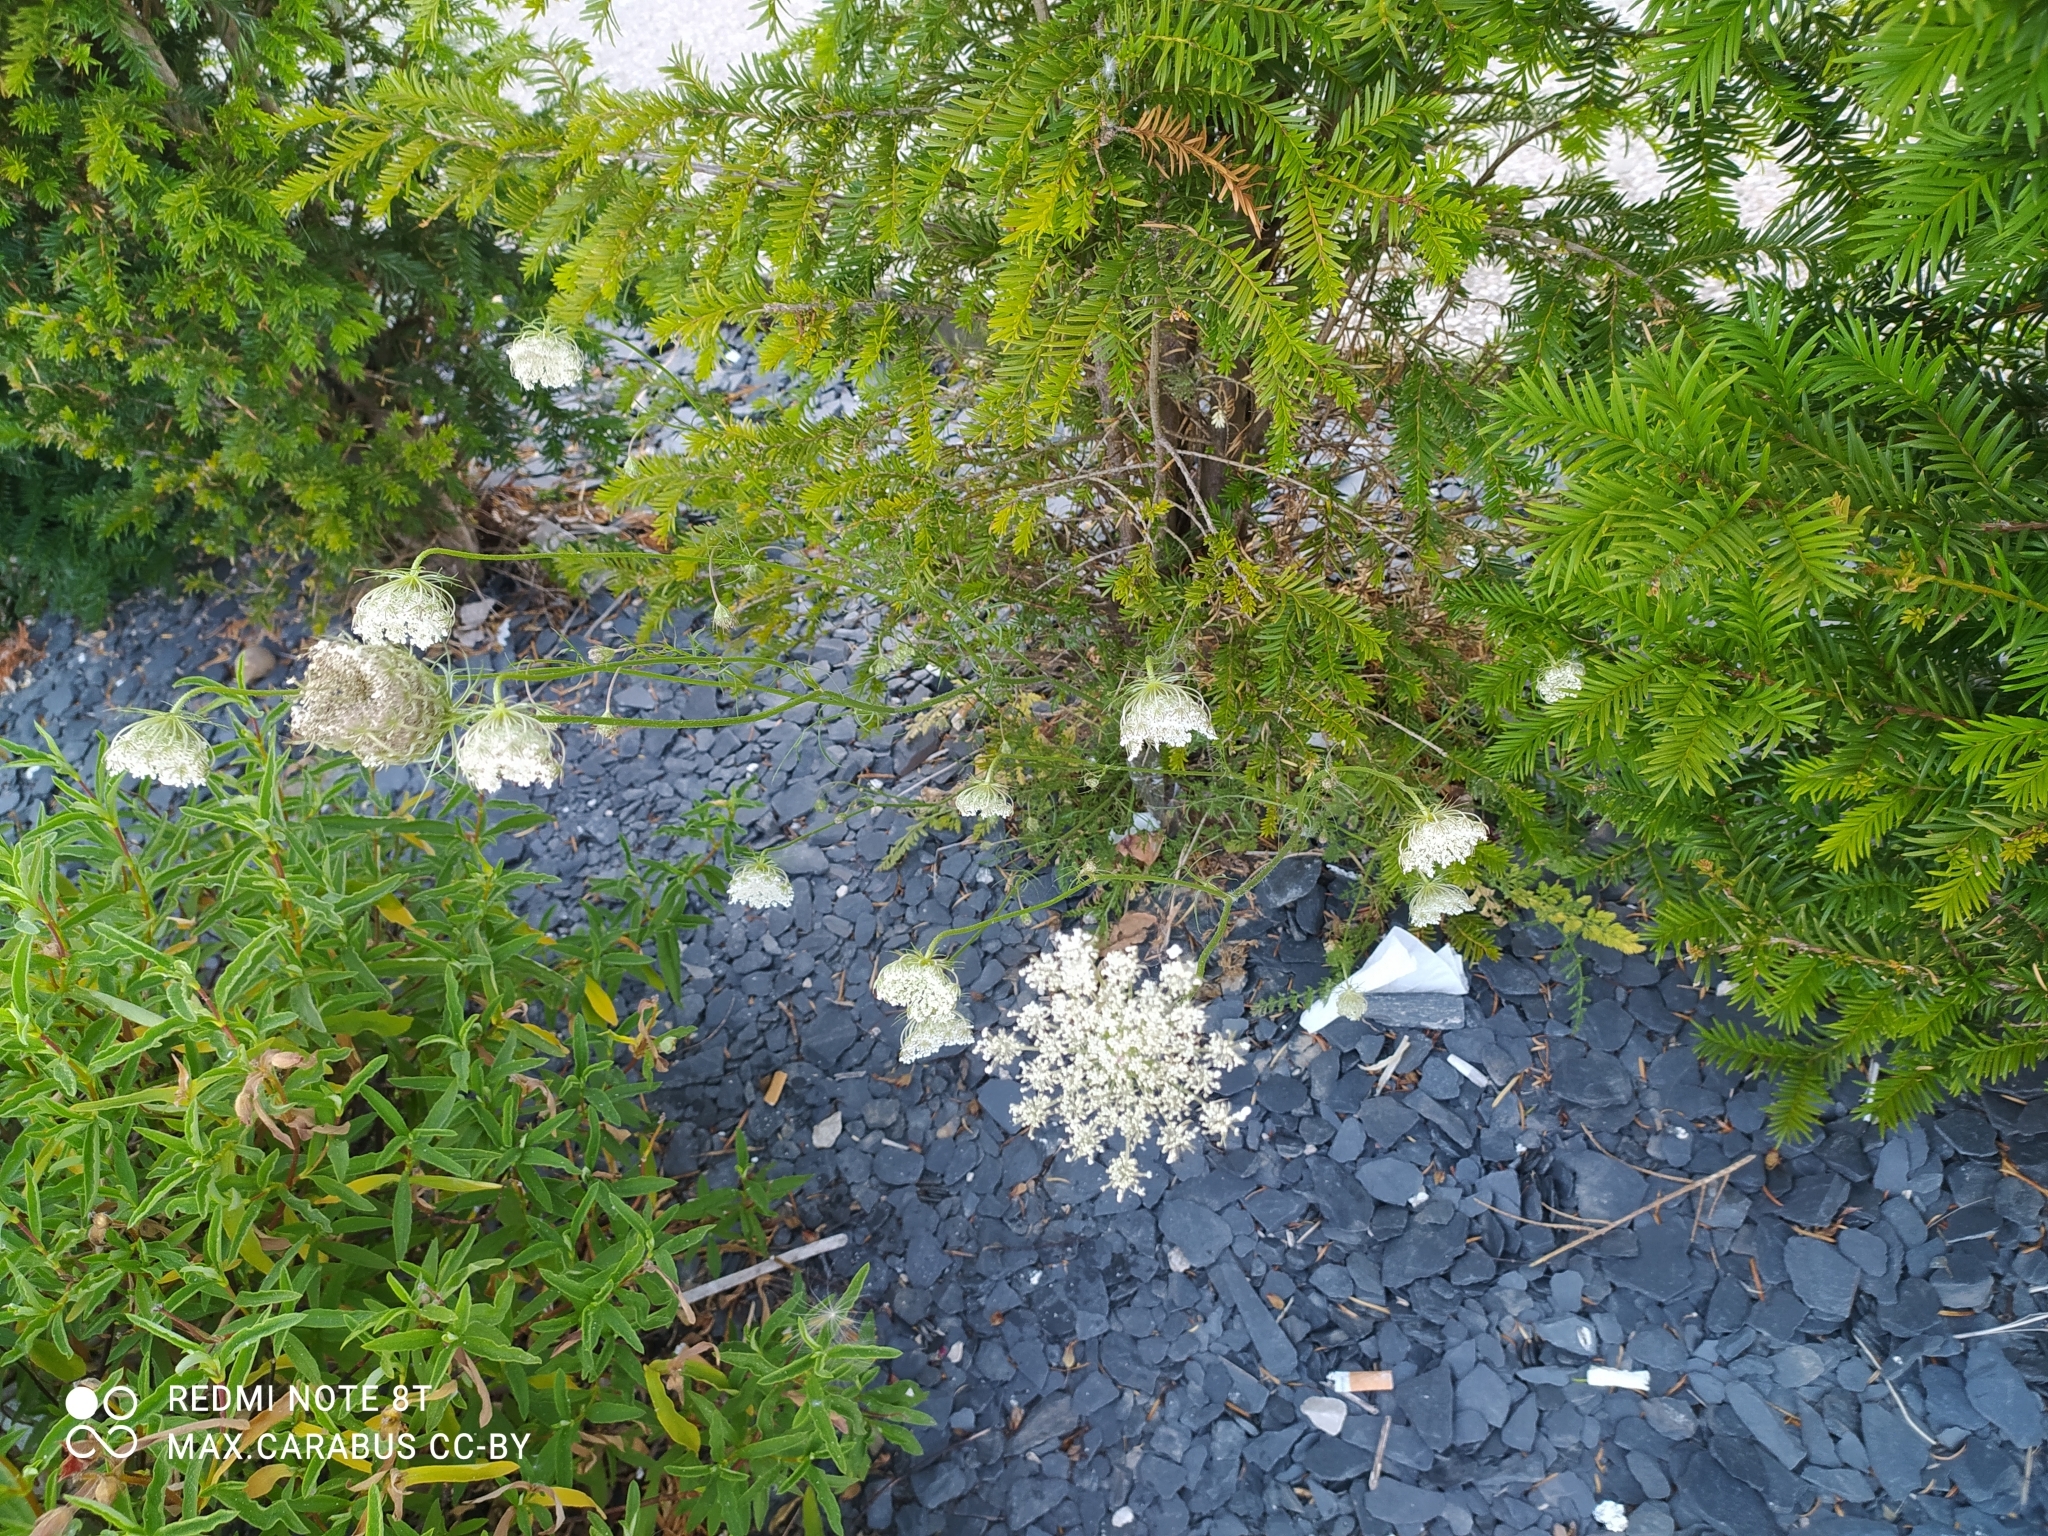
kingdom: Plantae
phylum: Tracheophyta
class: Magnoliopsida
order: Apiales
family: Apiaceae
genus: Daucus
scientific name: Daucus carota
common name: Wild carrot
